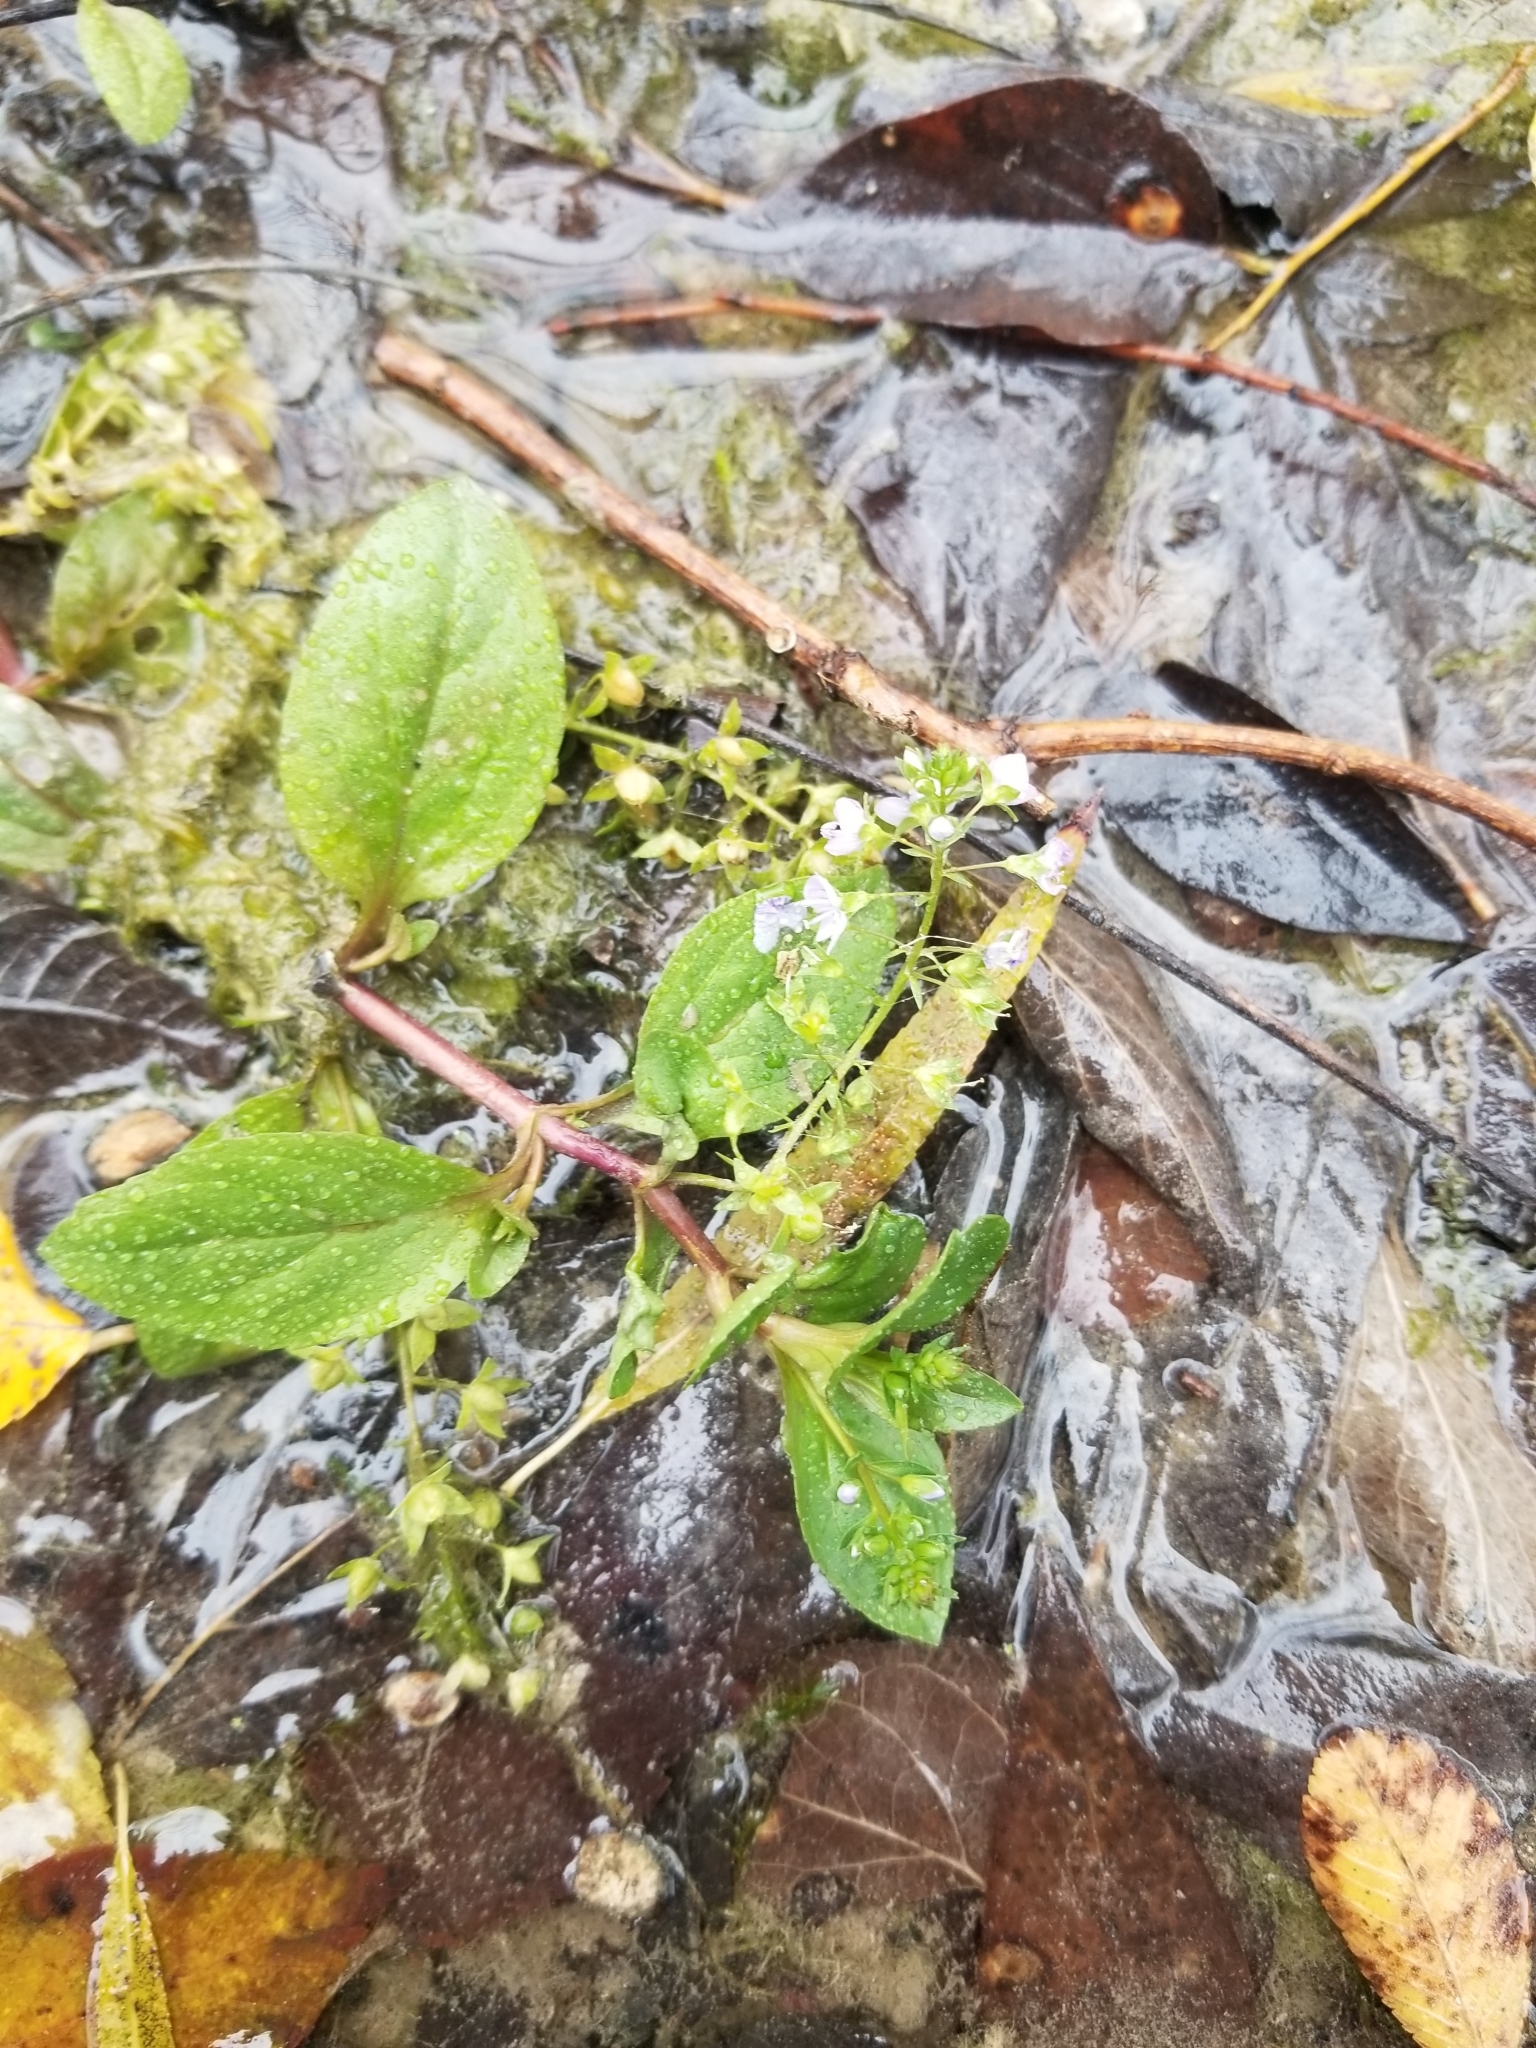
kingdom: Plantae
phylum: Tracheophyta
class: Magnoliopsida
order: Lamiales
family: Plantaginaceae
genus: Veronica
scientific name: Veronica anagallis-aquatica
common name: Water speedwell
